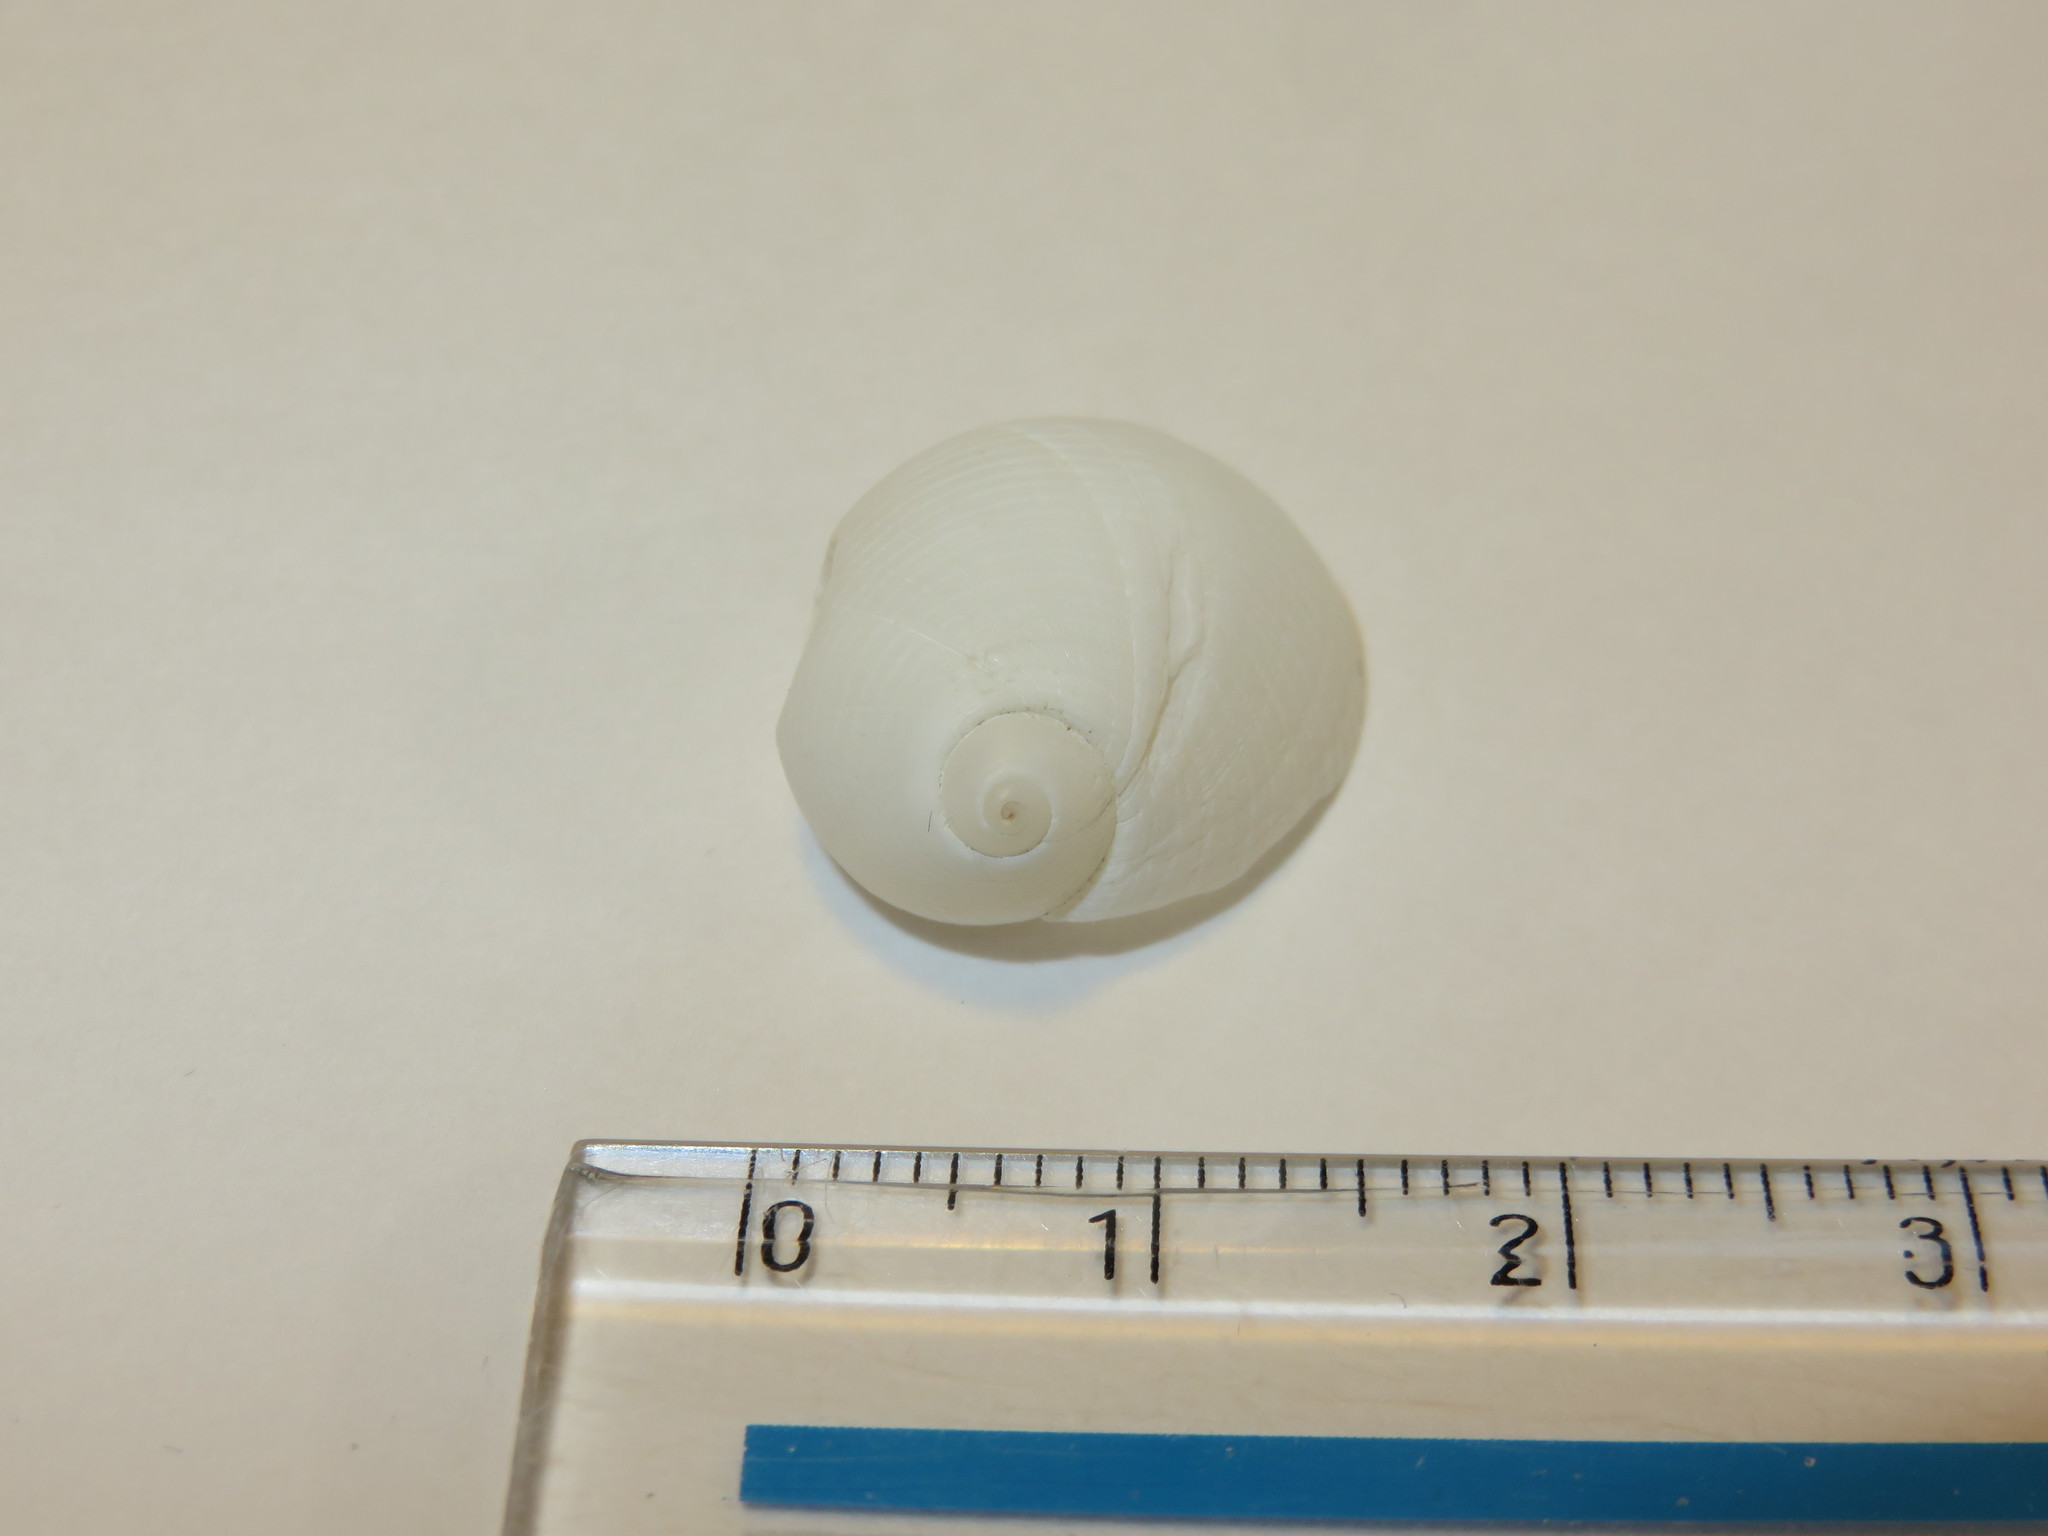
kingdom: Animalia
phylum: Mollusca
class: Gastropoda
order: Littorinimorpha
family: Naticidae
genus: Eunaticina
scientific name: Eunaticina papilla
